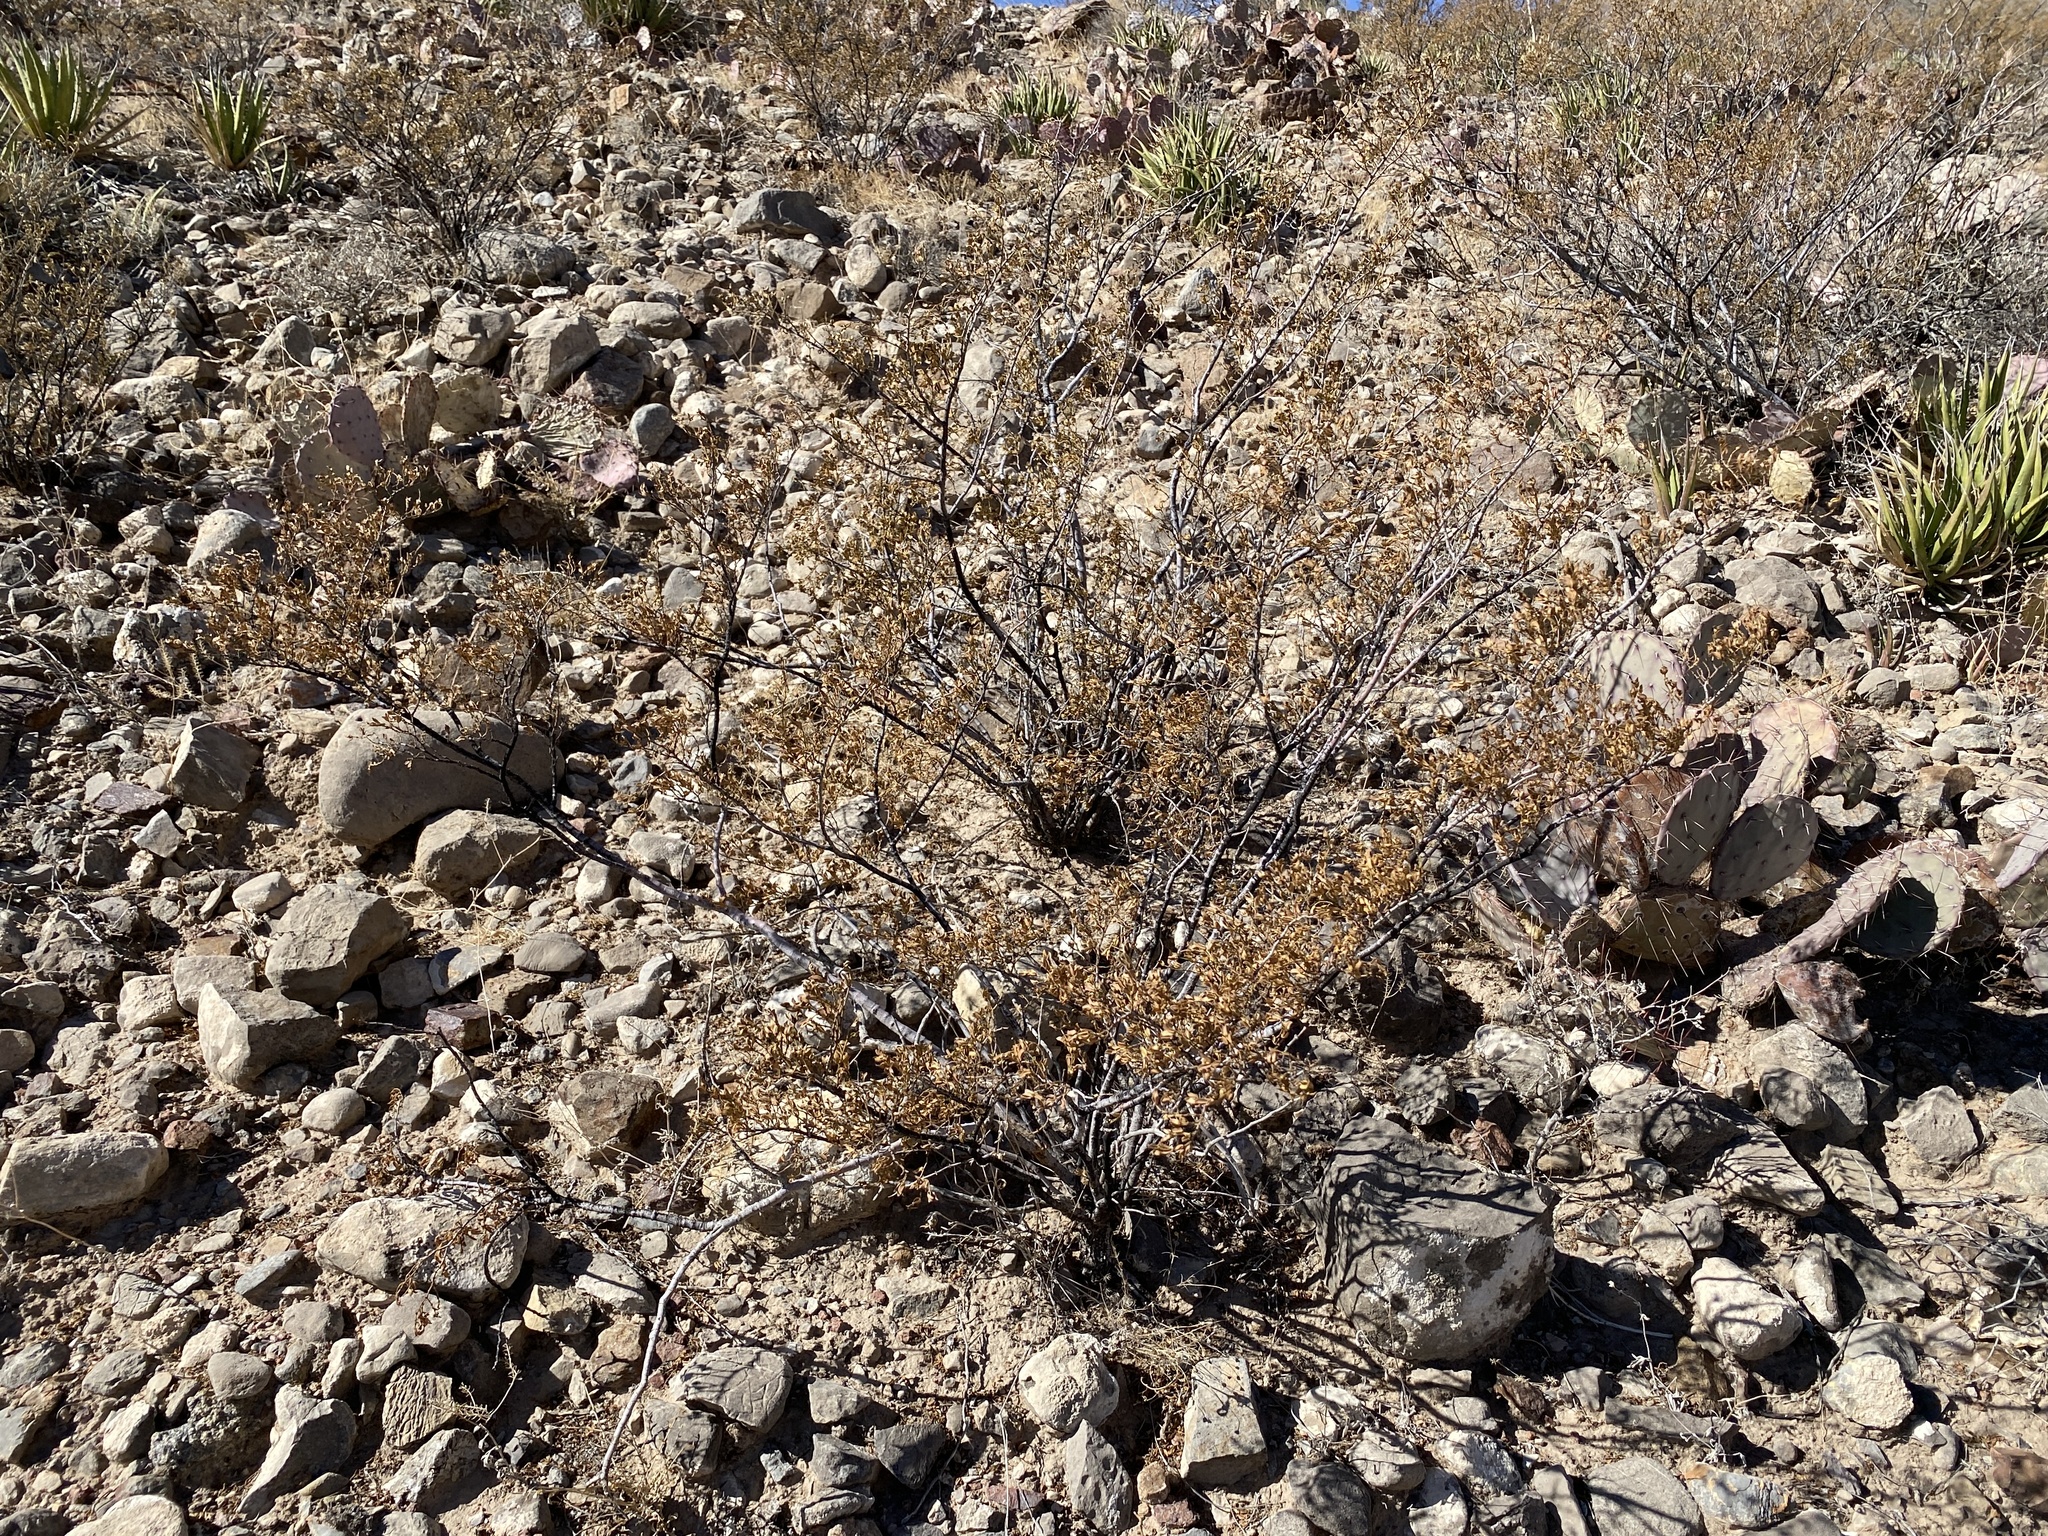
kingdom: Plantae
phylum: Tracheophyta
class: Magnoliopsida
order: Zygophyllales
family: Zygophyllaceae
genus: Larrea
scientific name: Larrea tridentata
